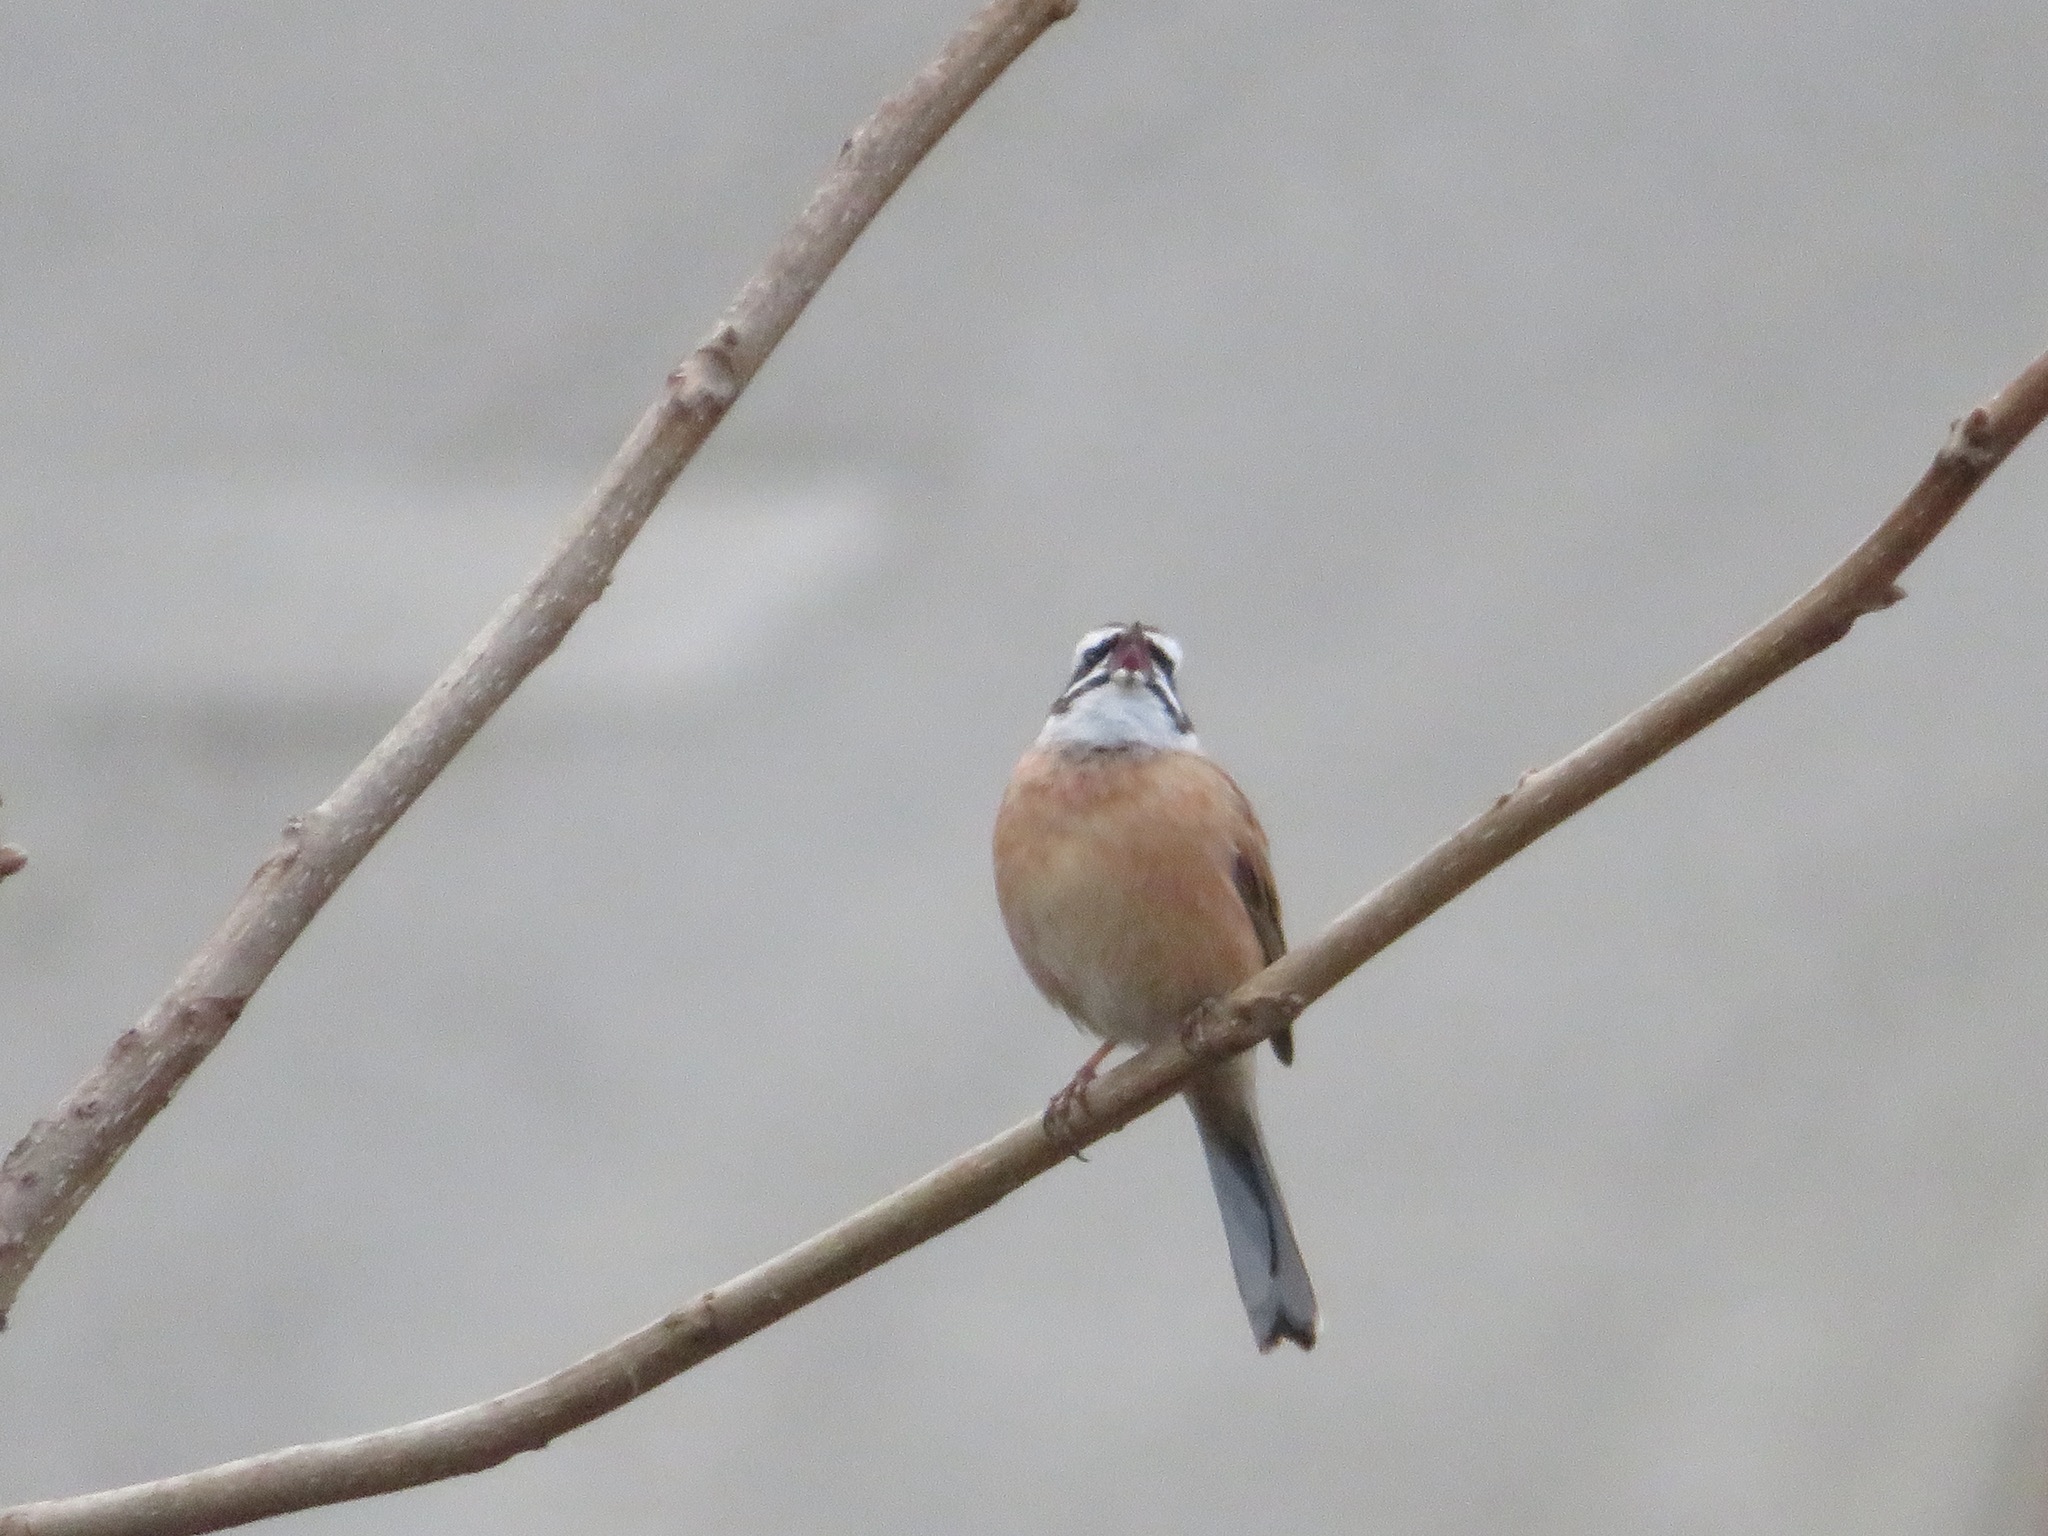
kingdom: Animalia
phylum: Chordata
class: Aves
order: Passeriformes
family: Emberizidae
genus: Emberiza
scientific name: Emberiza cioides
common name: Meadow bunting
